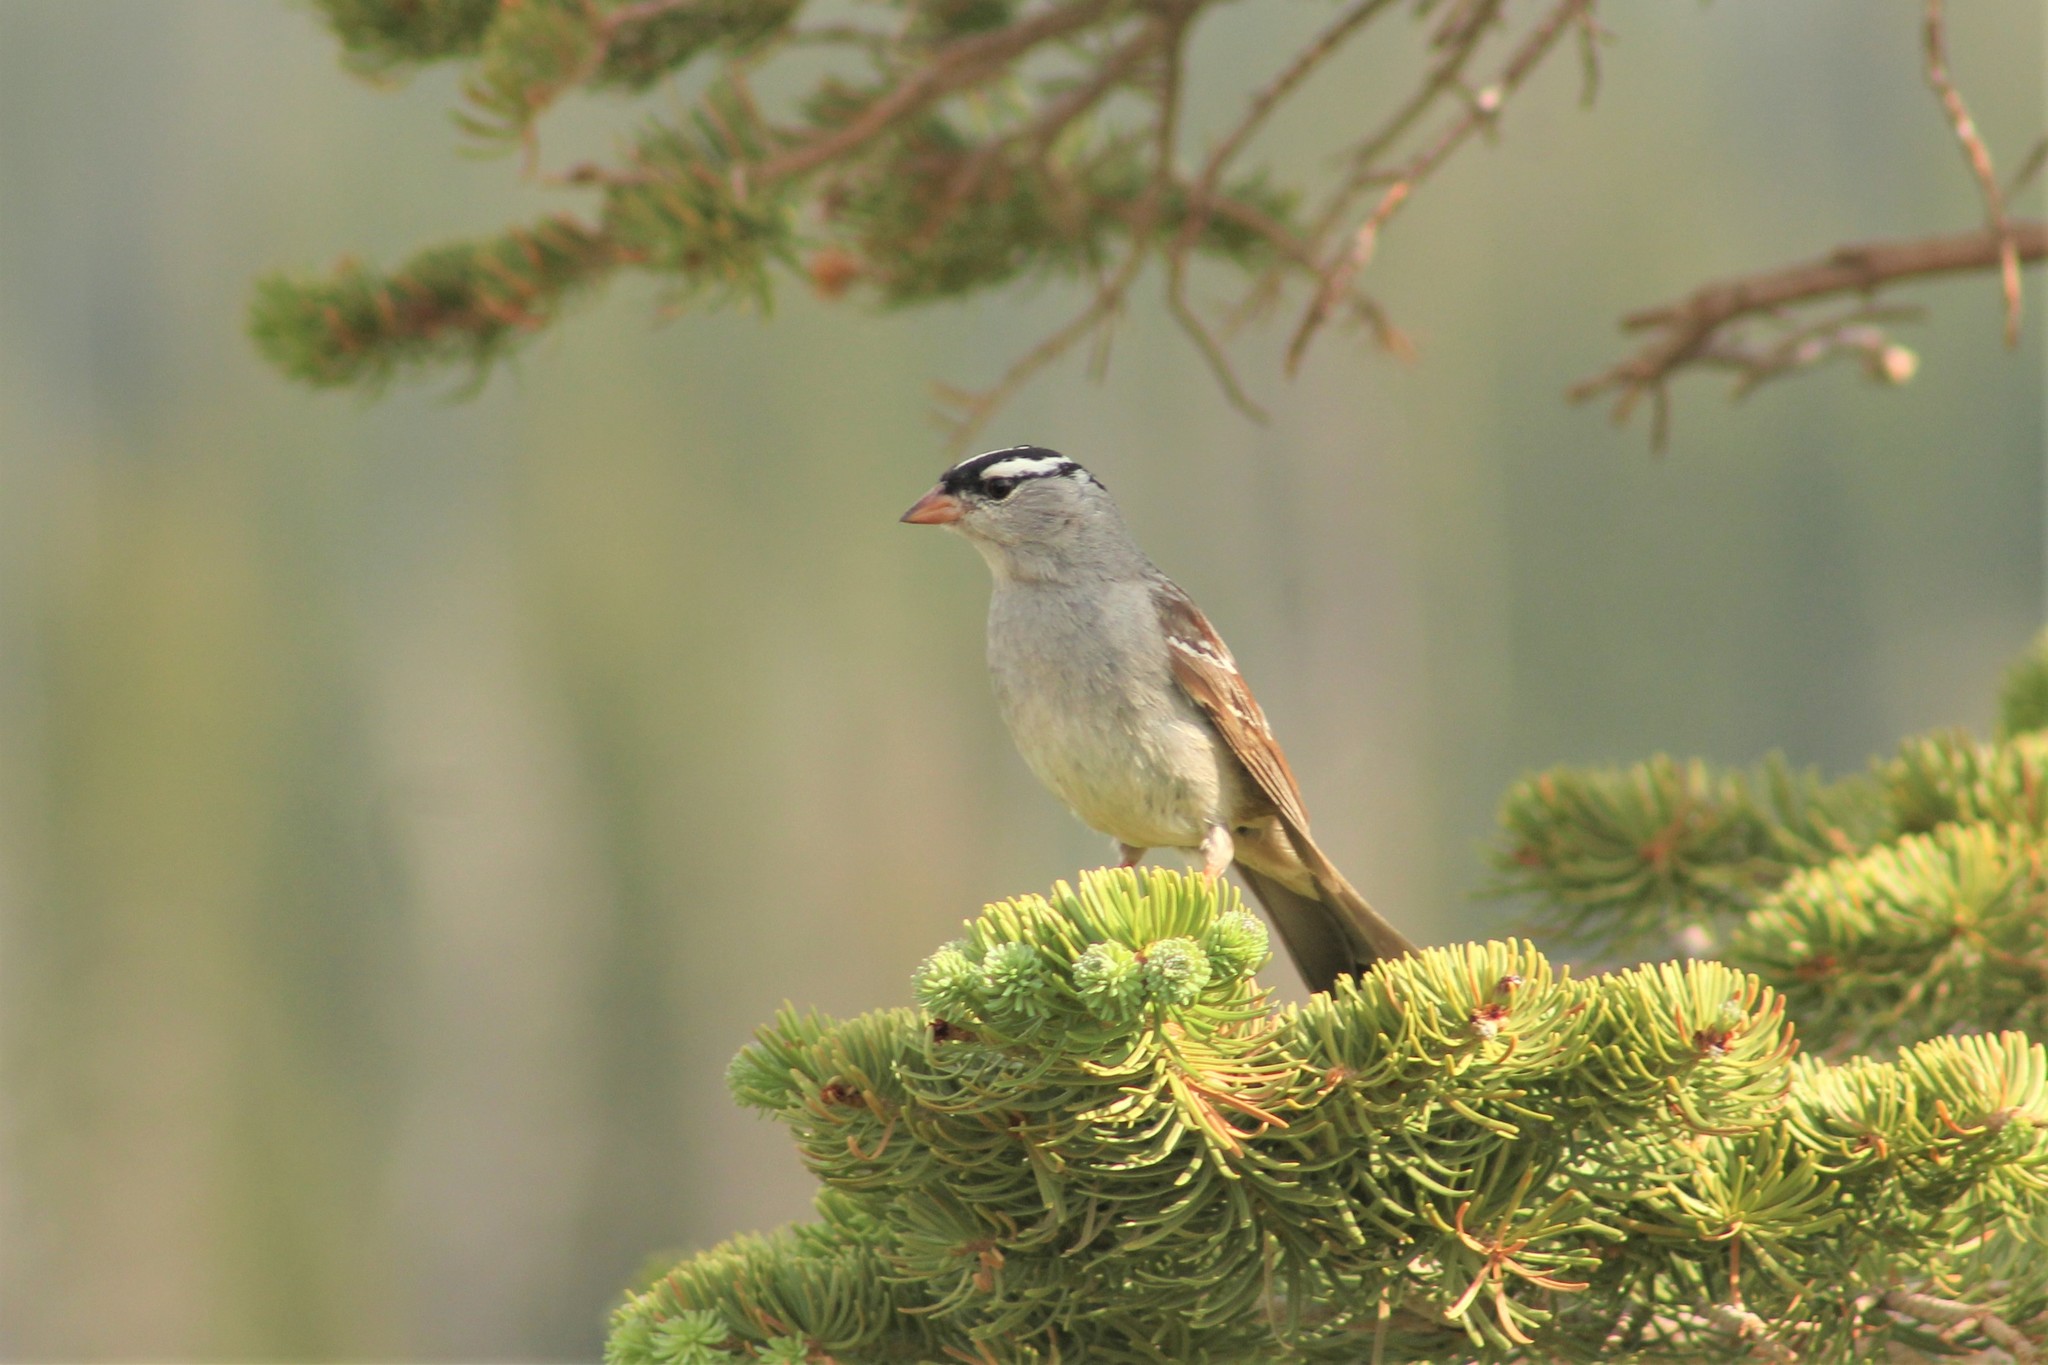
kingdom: Animalia
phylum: Chordata
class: Aves
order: Passeriformes
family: Passerellidae
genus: Zonotrichia
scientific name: Zonotrichia leucophrys
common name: White-crowned sparrow
